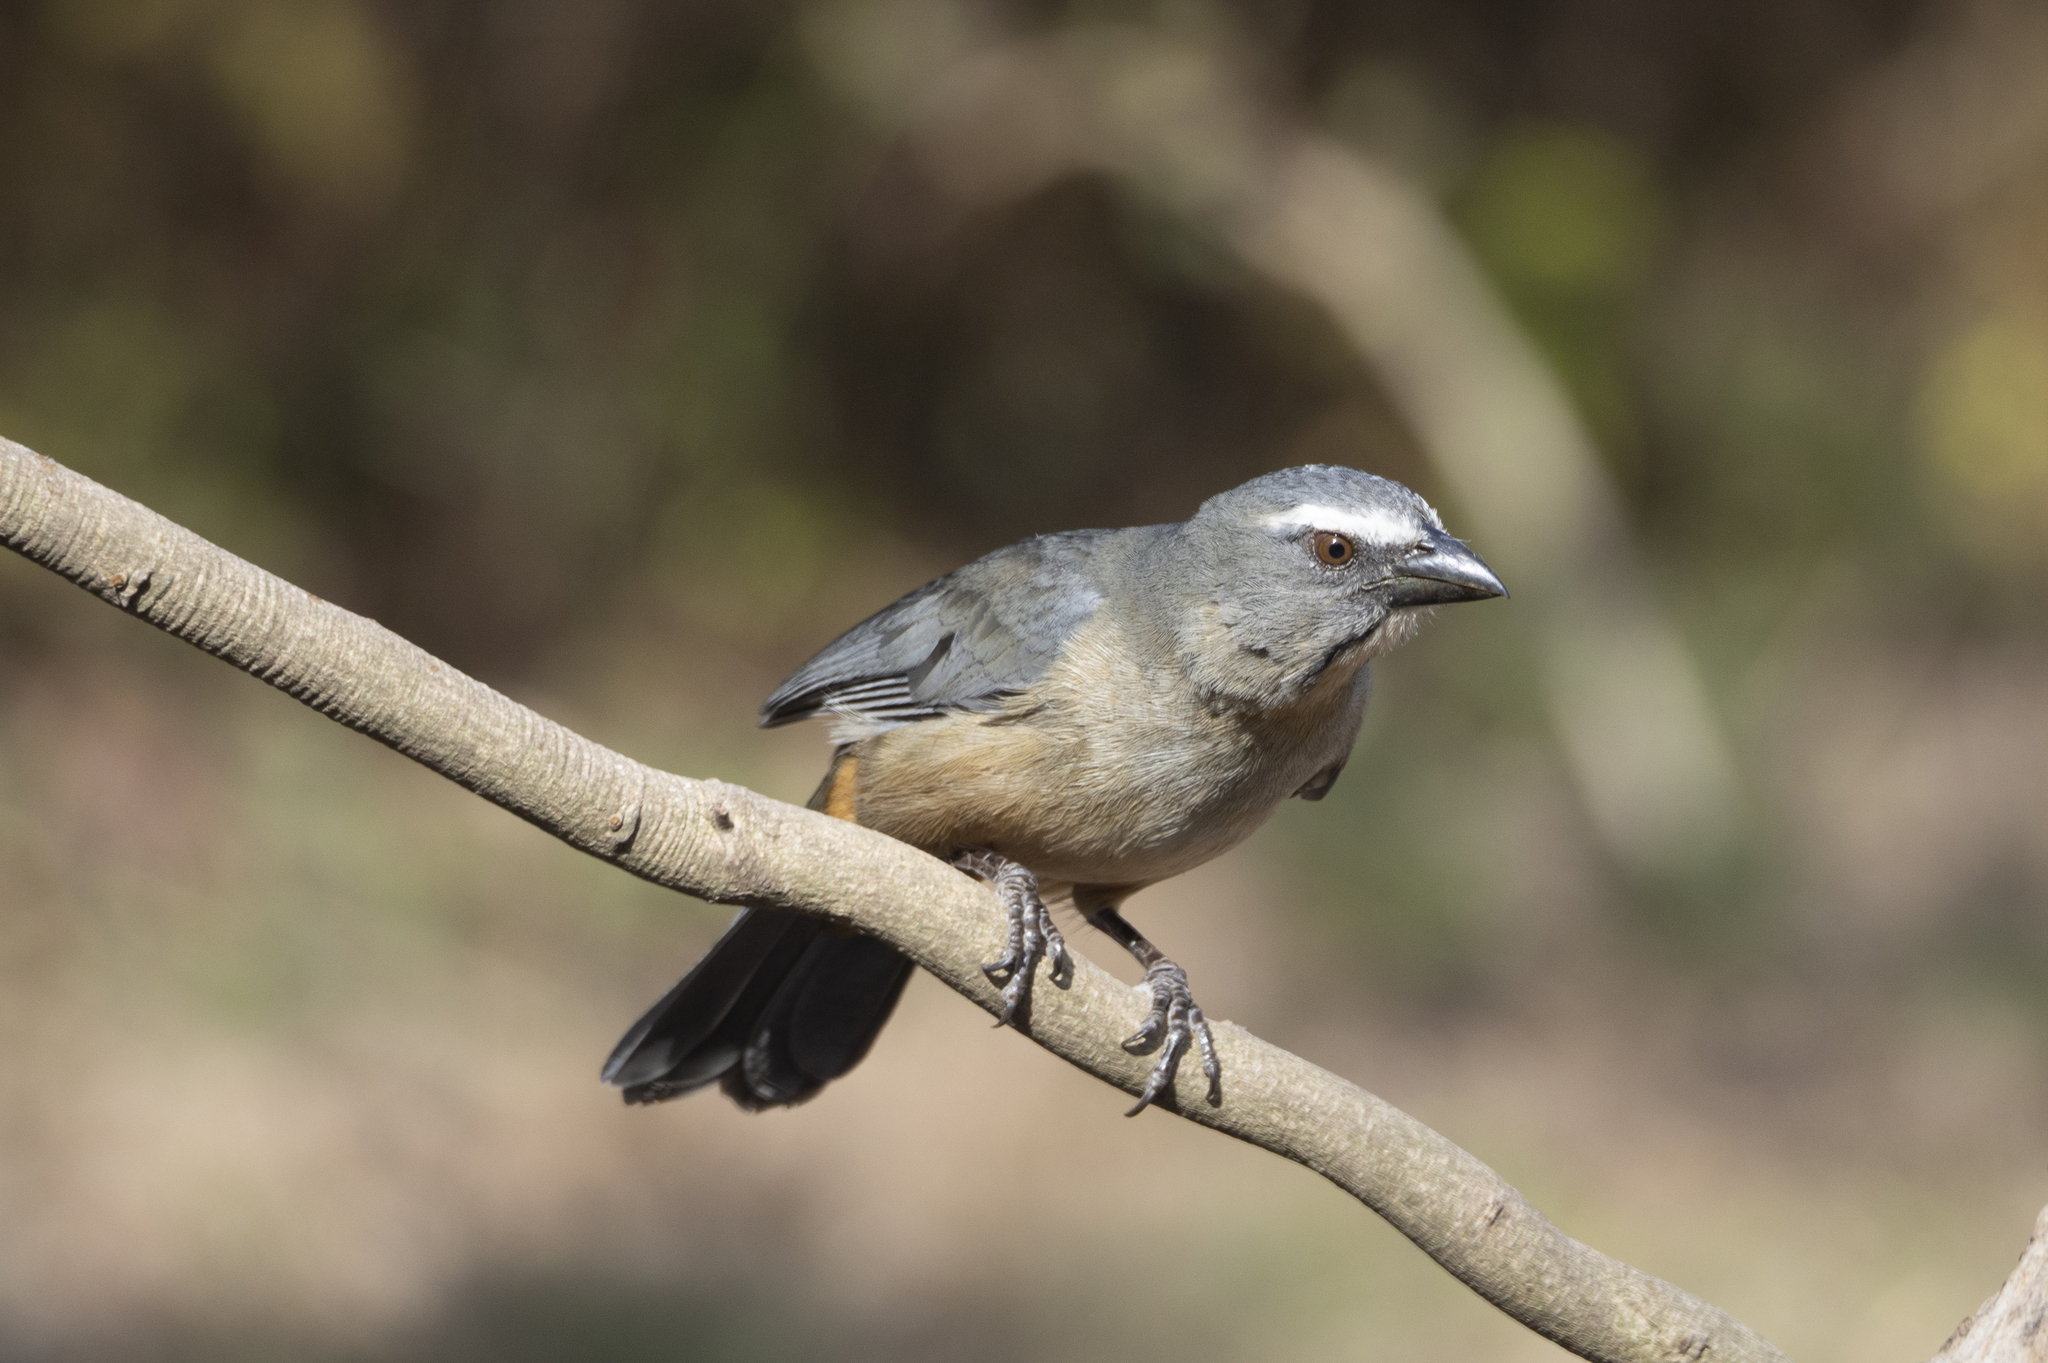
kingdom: Animalia
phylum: Chordata
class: Aves
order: Passeriformes
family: Thraupidae
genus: Saltator
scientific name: Saltator coerulescens
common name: Grayish saltator
